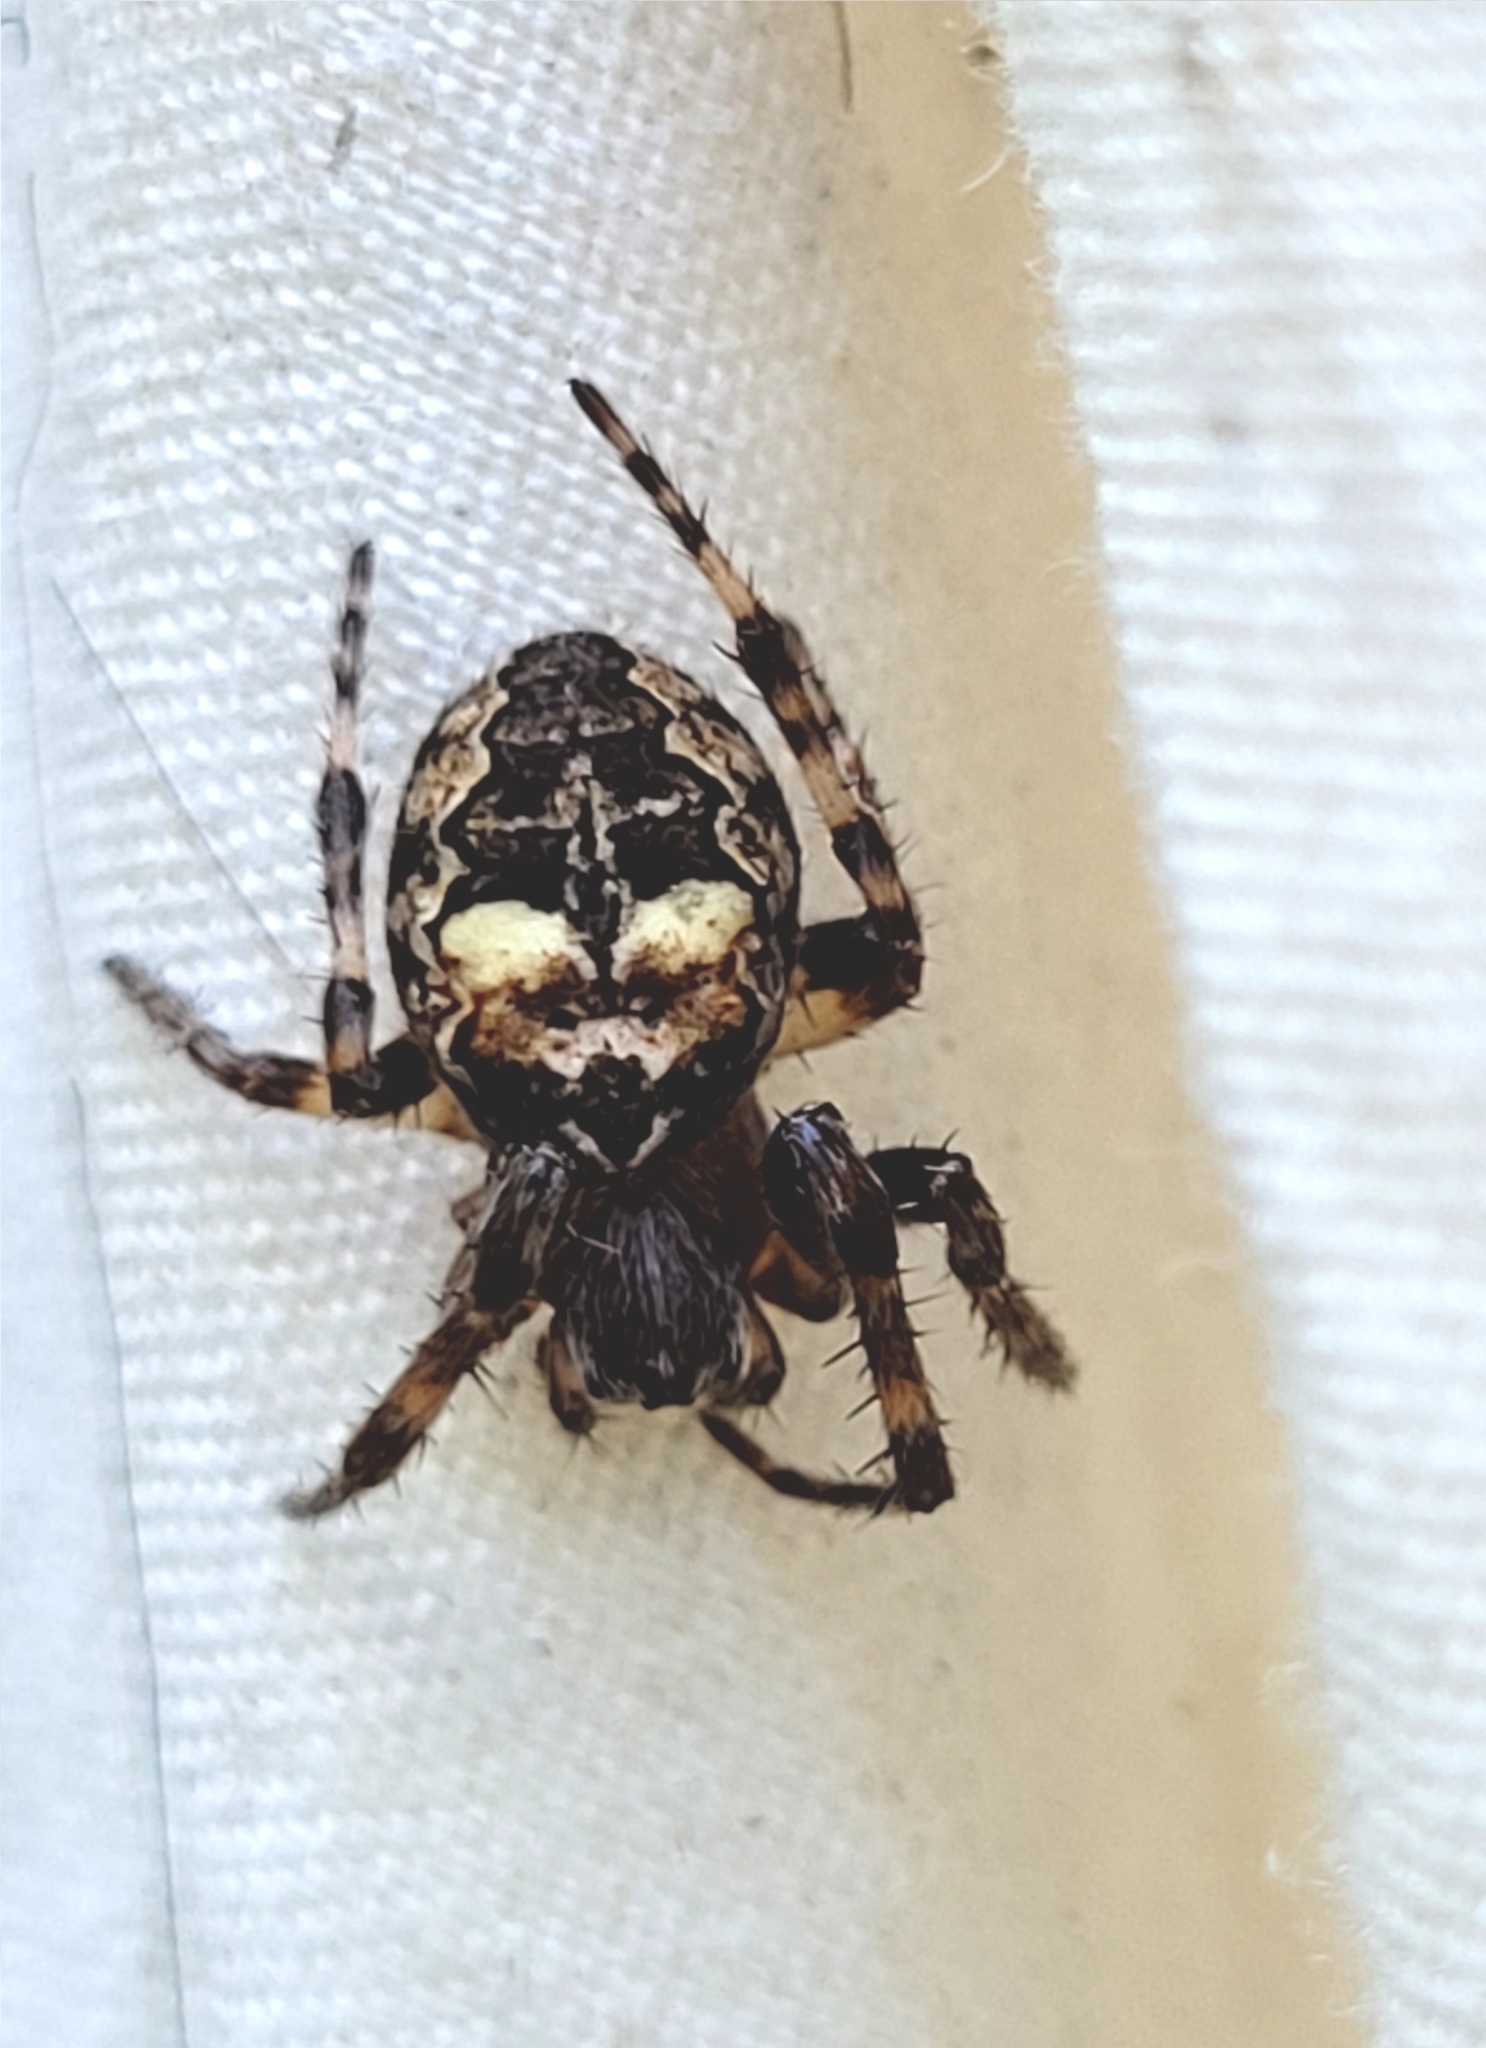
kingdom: Animalia
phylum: Arthropoda
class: Arachnida
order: Araneae
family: Araneidae
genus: Larinioides
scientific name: Larinioides patagiatus
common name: Ornamental orbweaver
